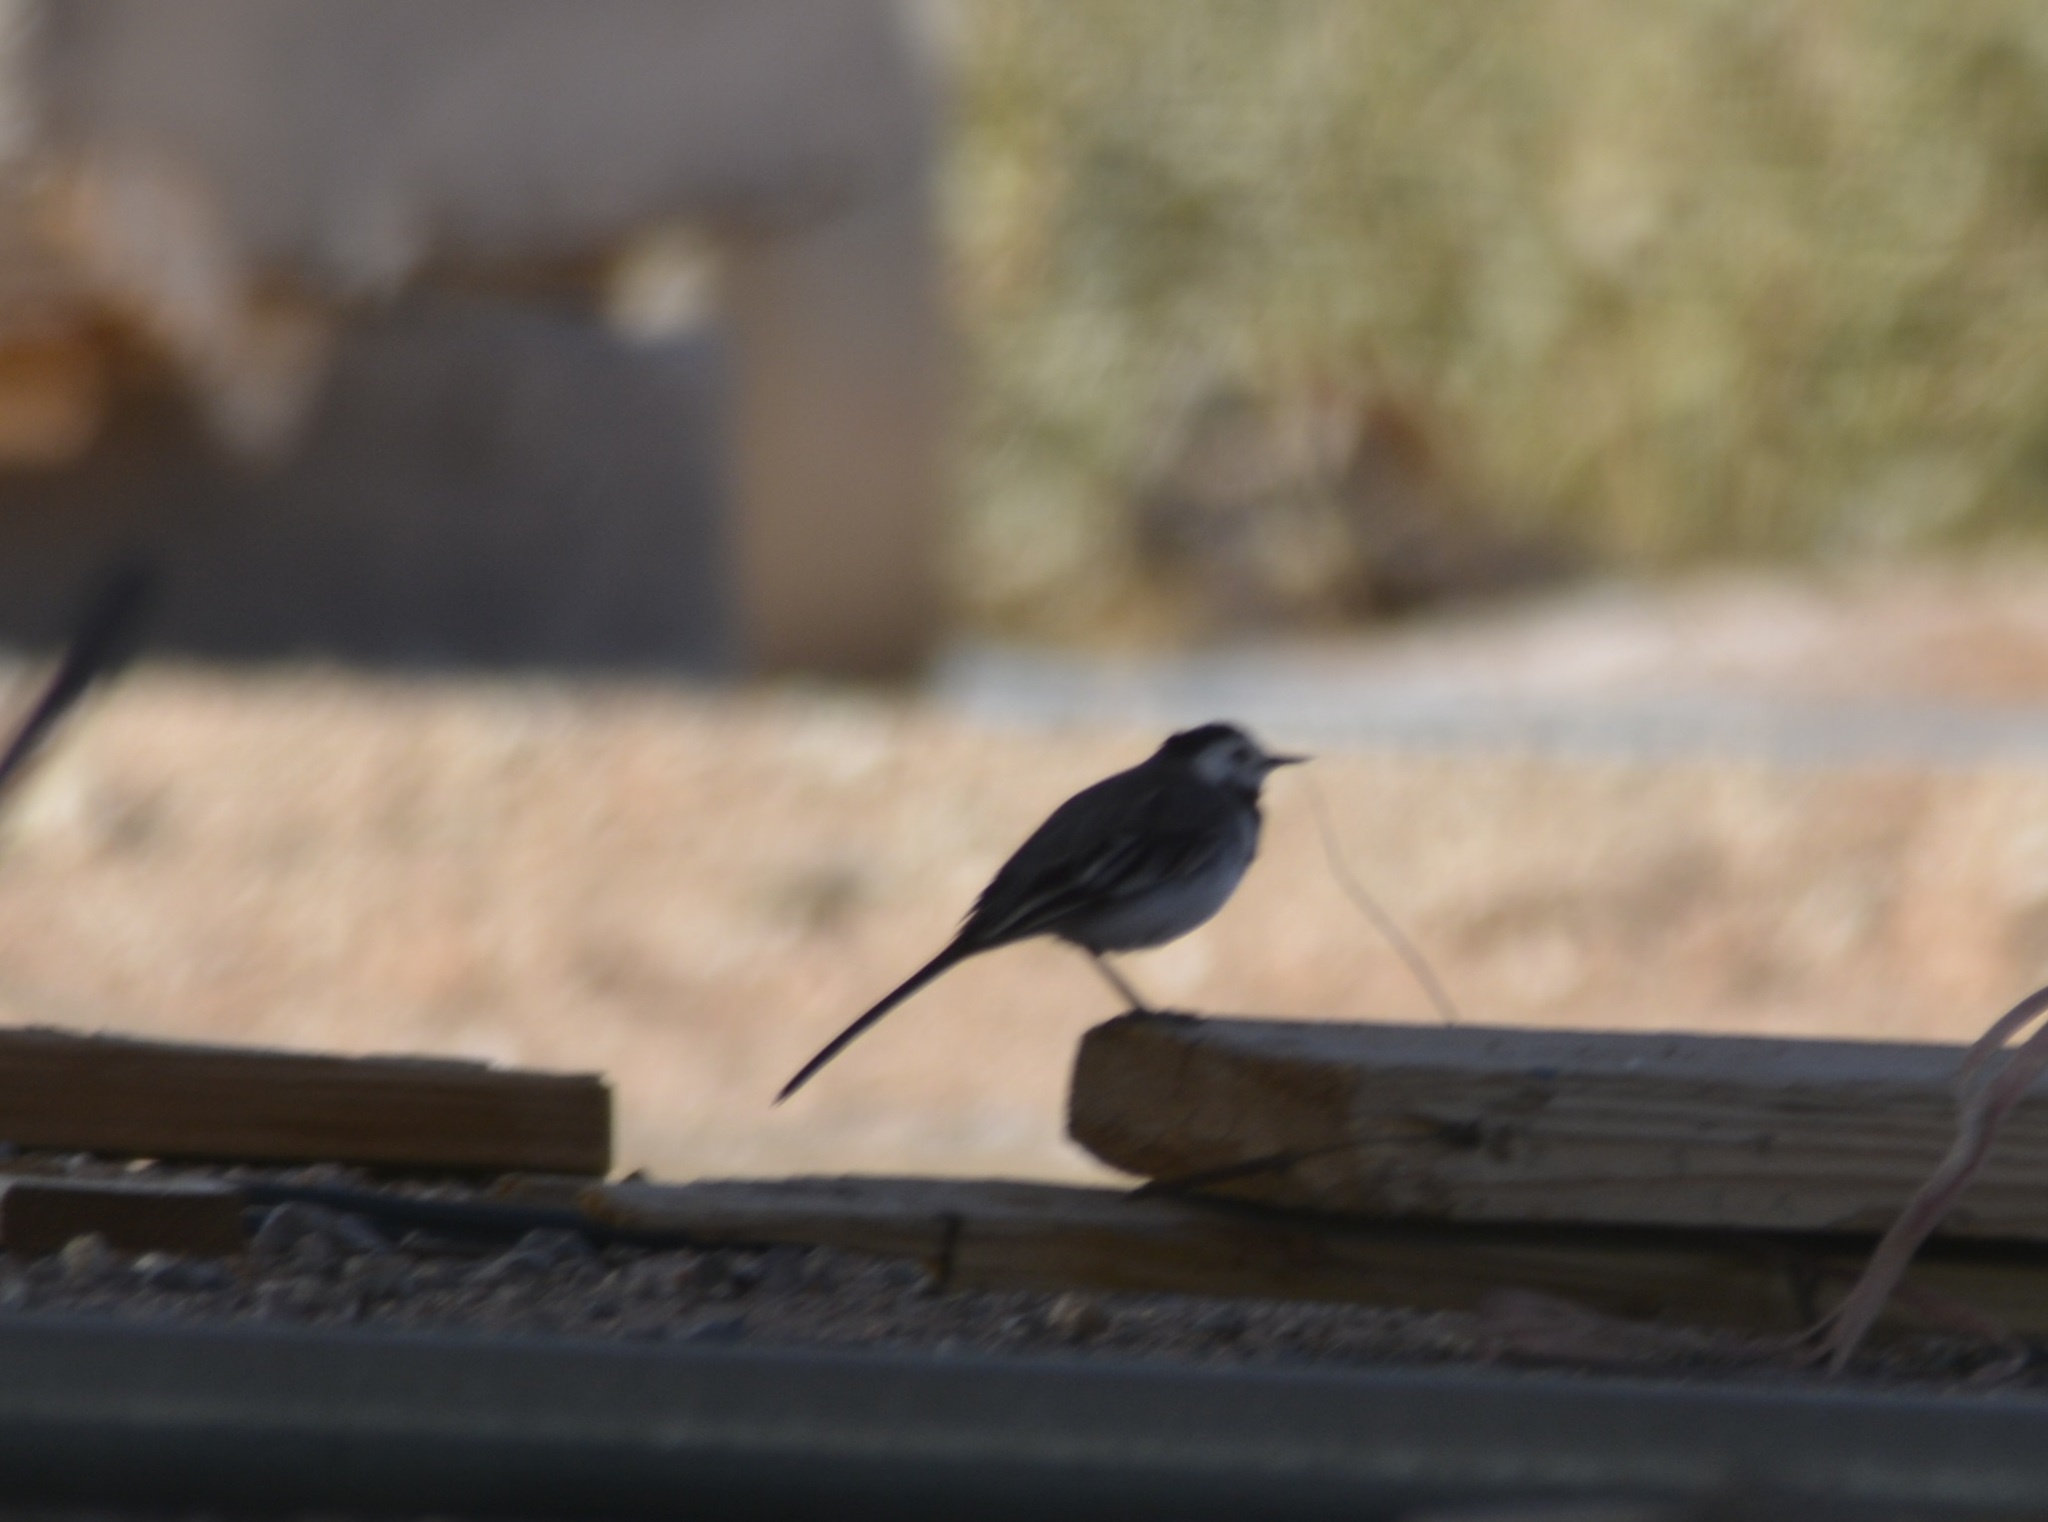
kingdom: Animalia
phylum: Chordata
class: Aves
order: Passeriformes
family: Motacillidae
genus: Motacilla
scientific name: Motacilla alba
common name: White wagtail
